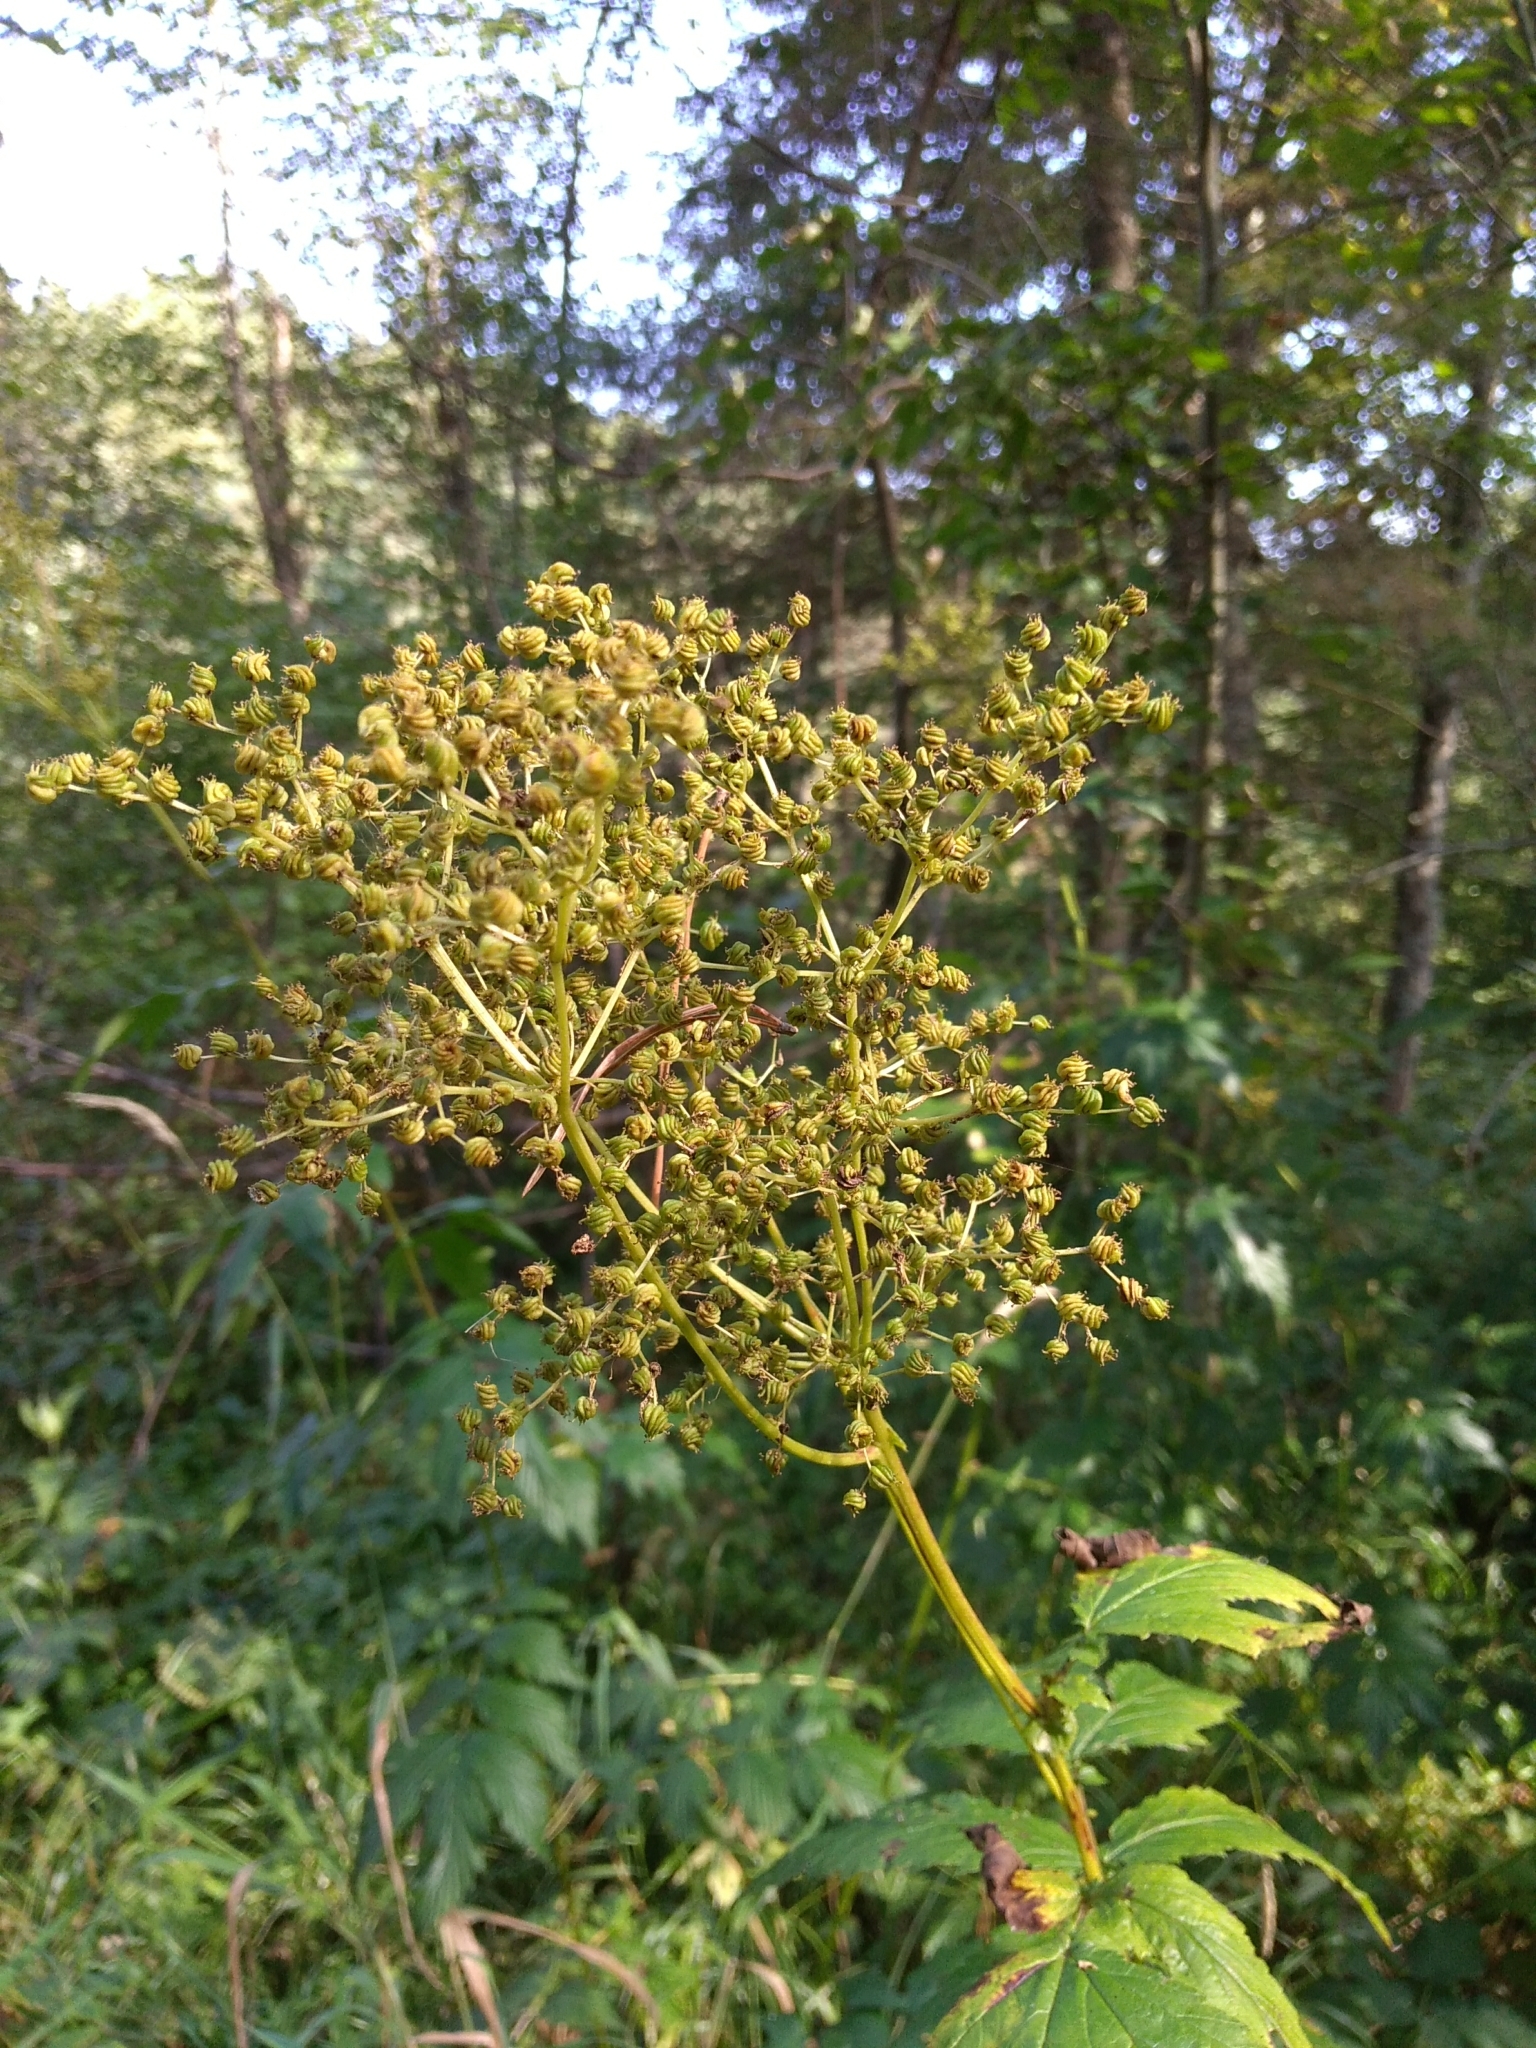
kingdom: Plantae
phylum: Tracheophyta
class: Magnoliopsida
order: Rosales
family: Rosaceae
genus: Filipendula
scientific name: Filipendula ulmaria
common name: Meadowsweet
